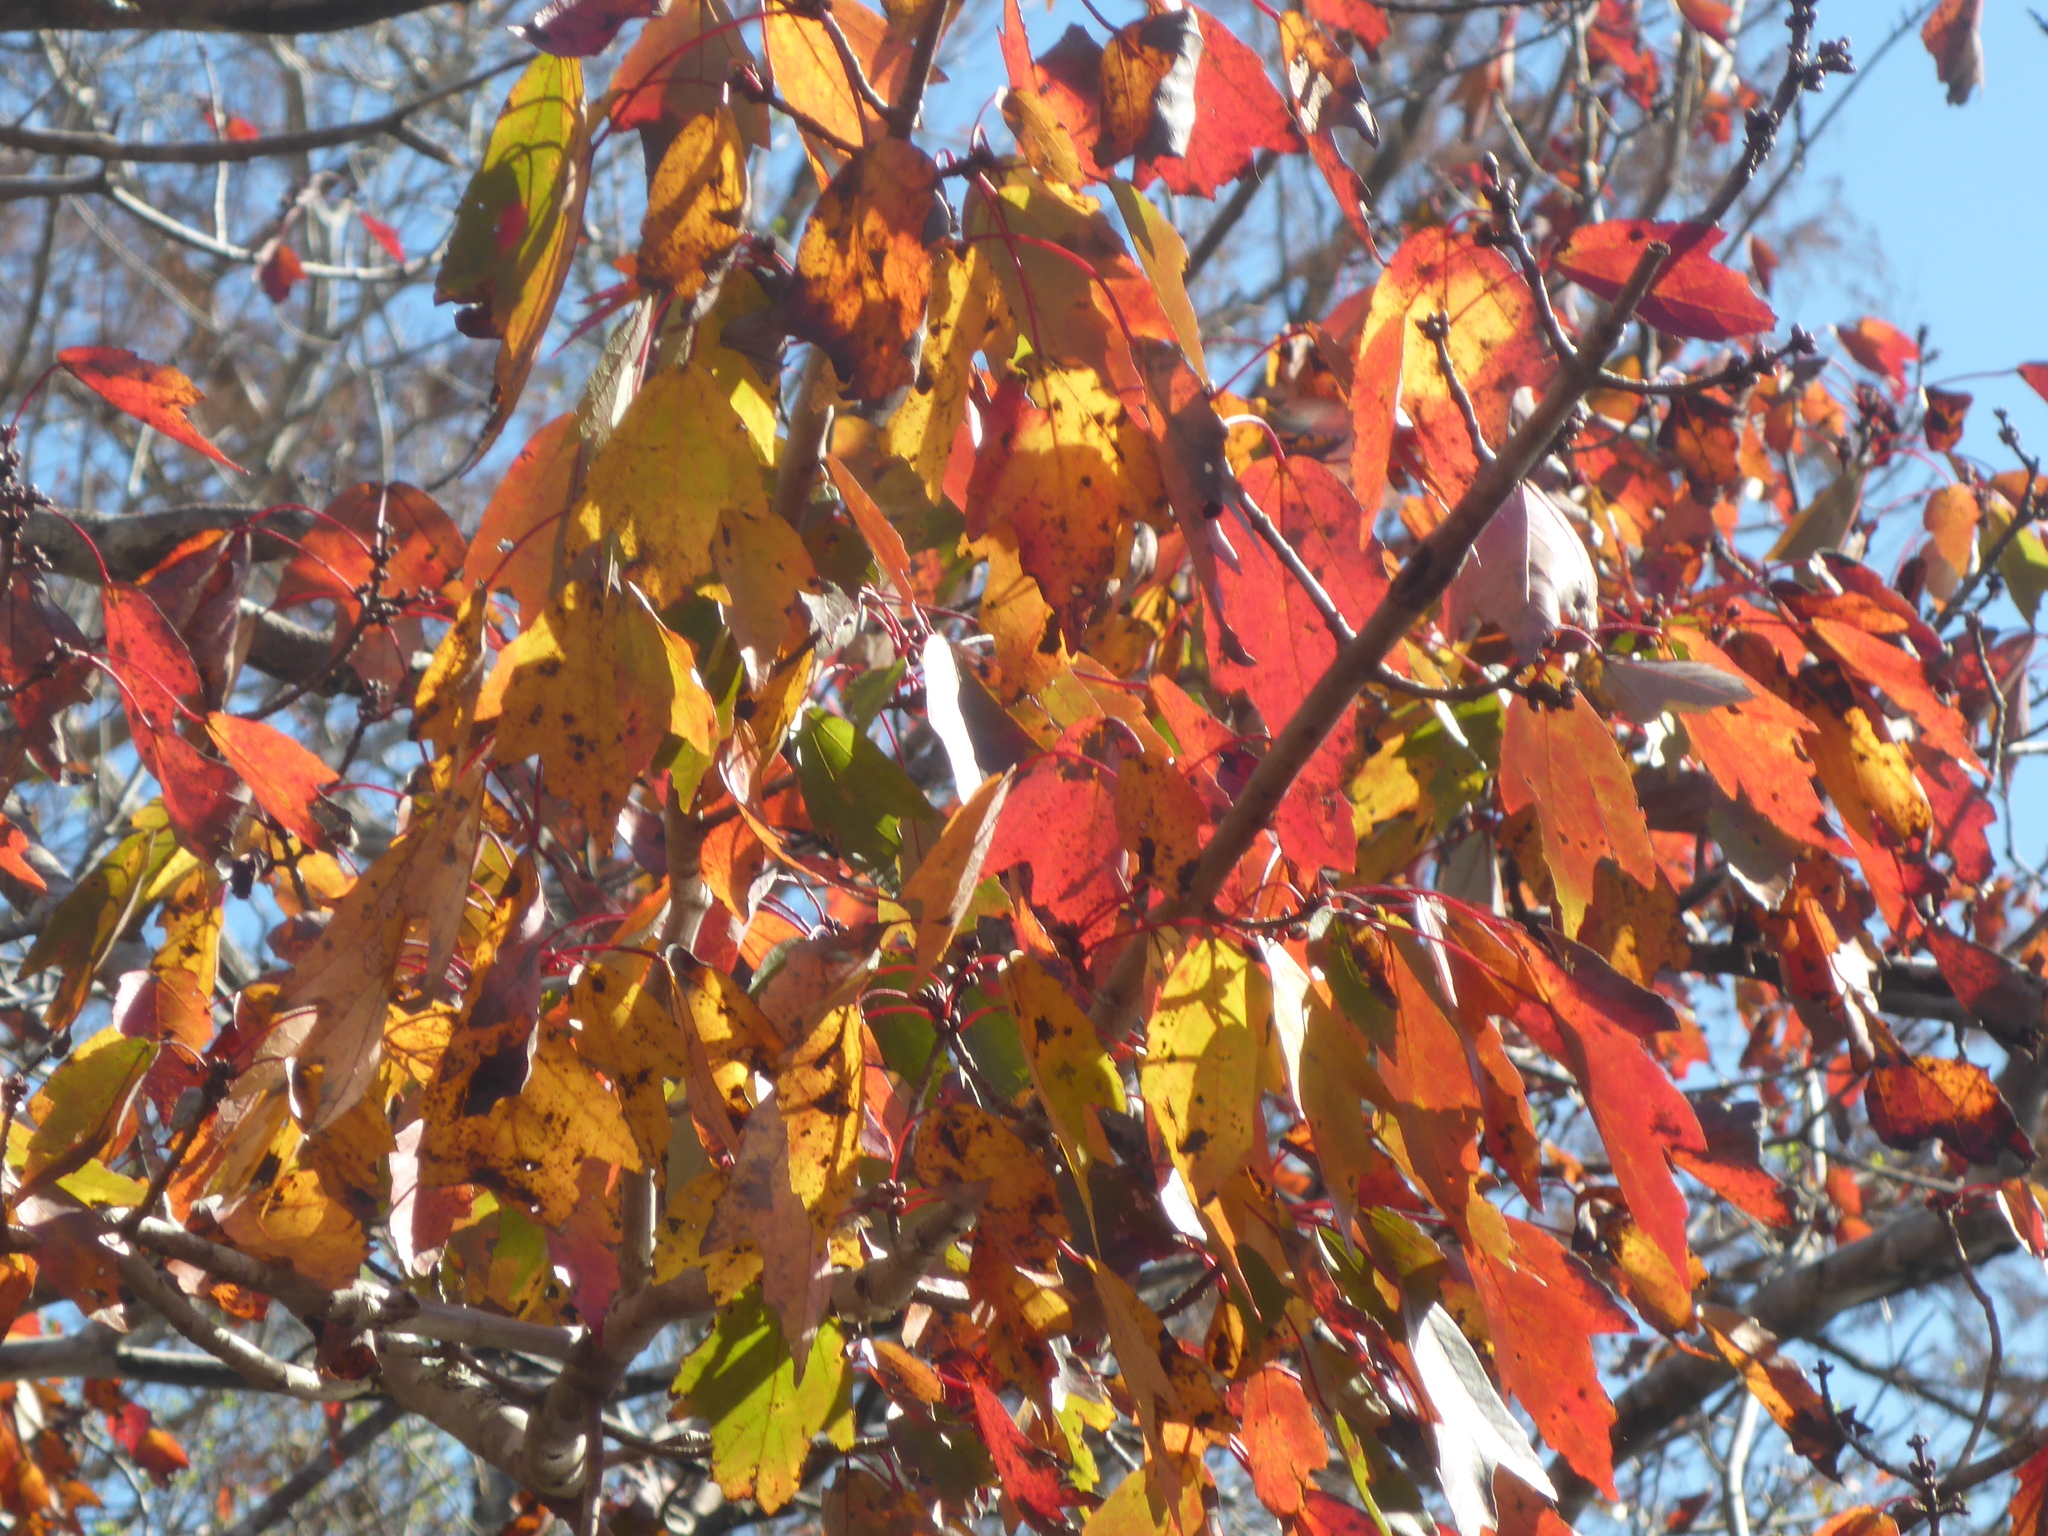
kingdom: Plantae
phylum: Tracheophyta
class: Magnoliopsida
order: Sapindales
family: Sapindaceae
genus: Acer
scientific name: Acer rubrum
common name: Red maple
